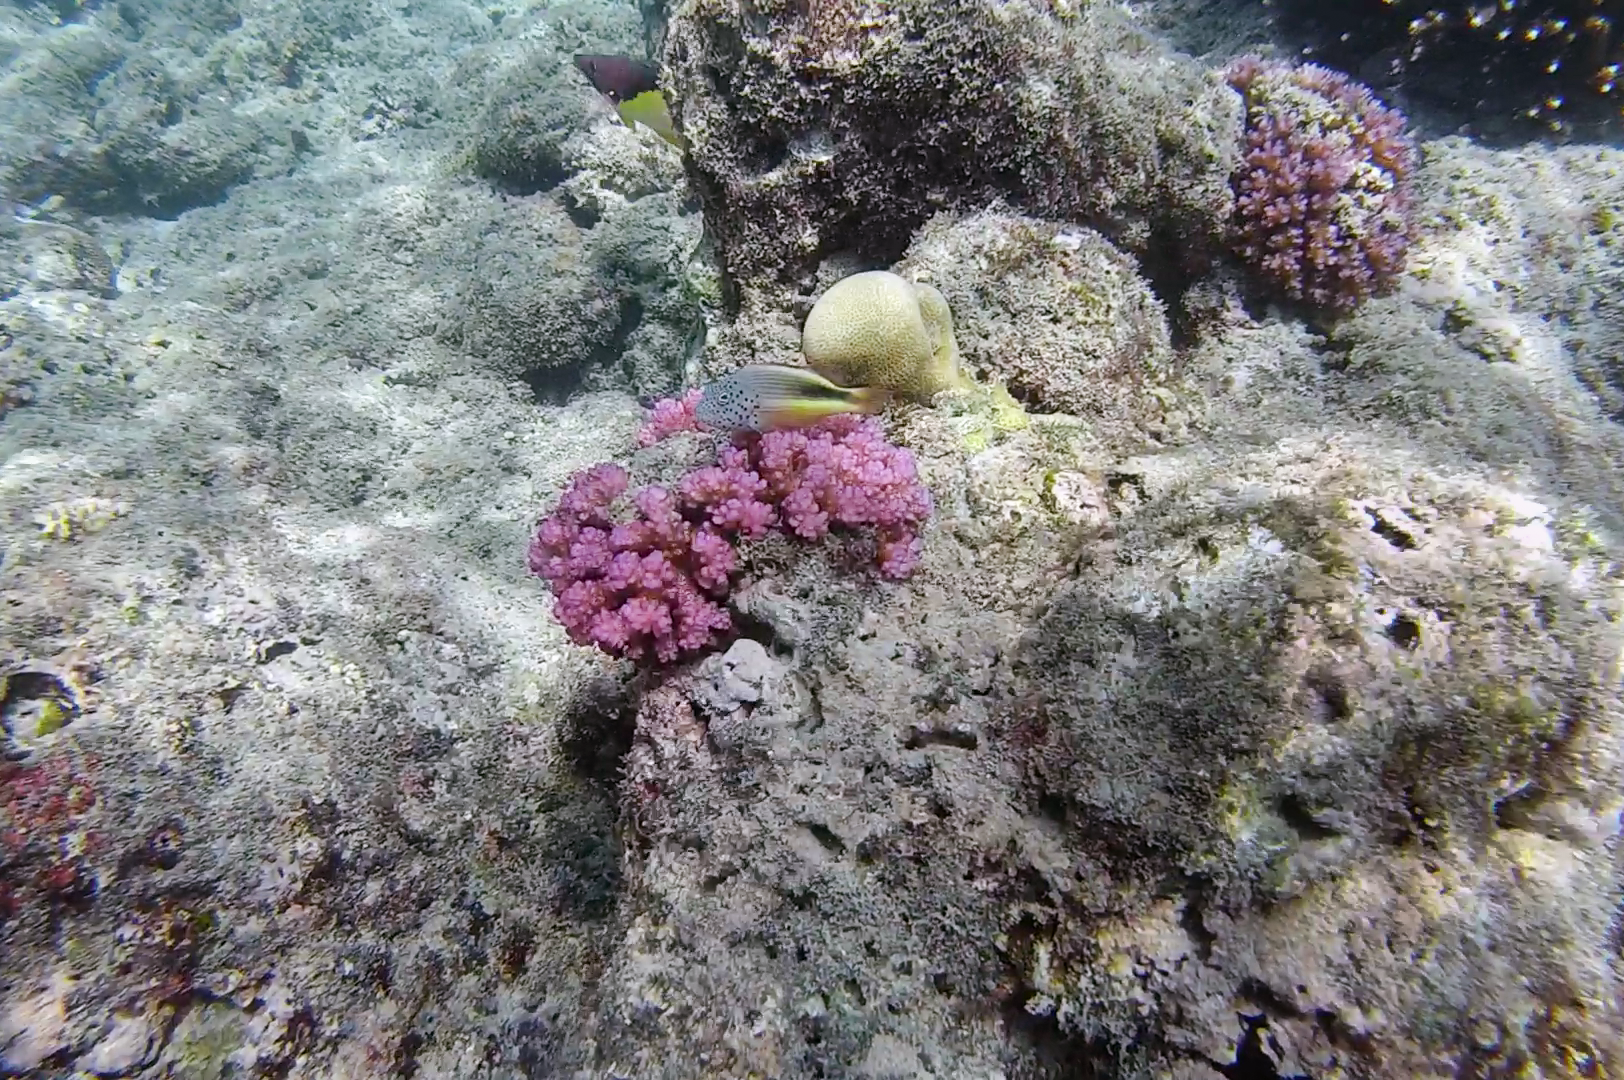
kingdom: Animalia
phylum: Chordata
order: Perciformes
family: Cirrhitidae
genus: Paracirrhites
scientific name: Paracirrhites forsteri
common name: Freckled hawkfish
